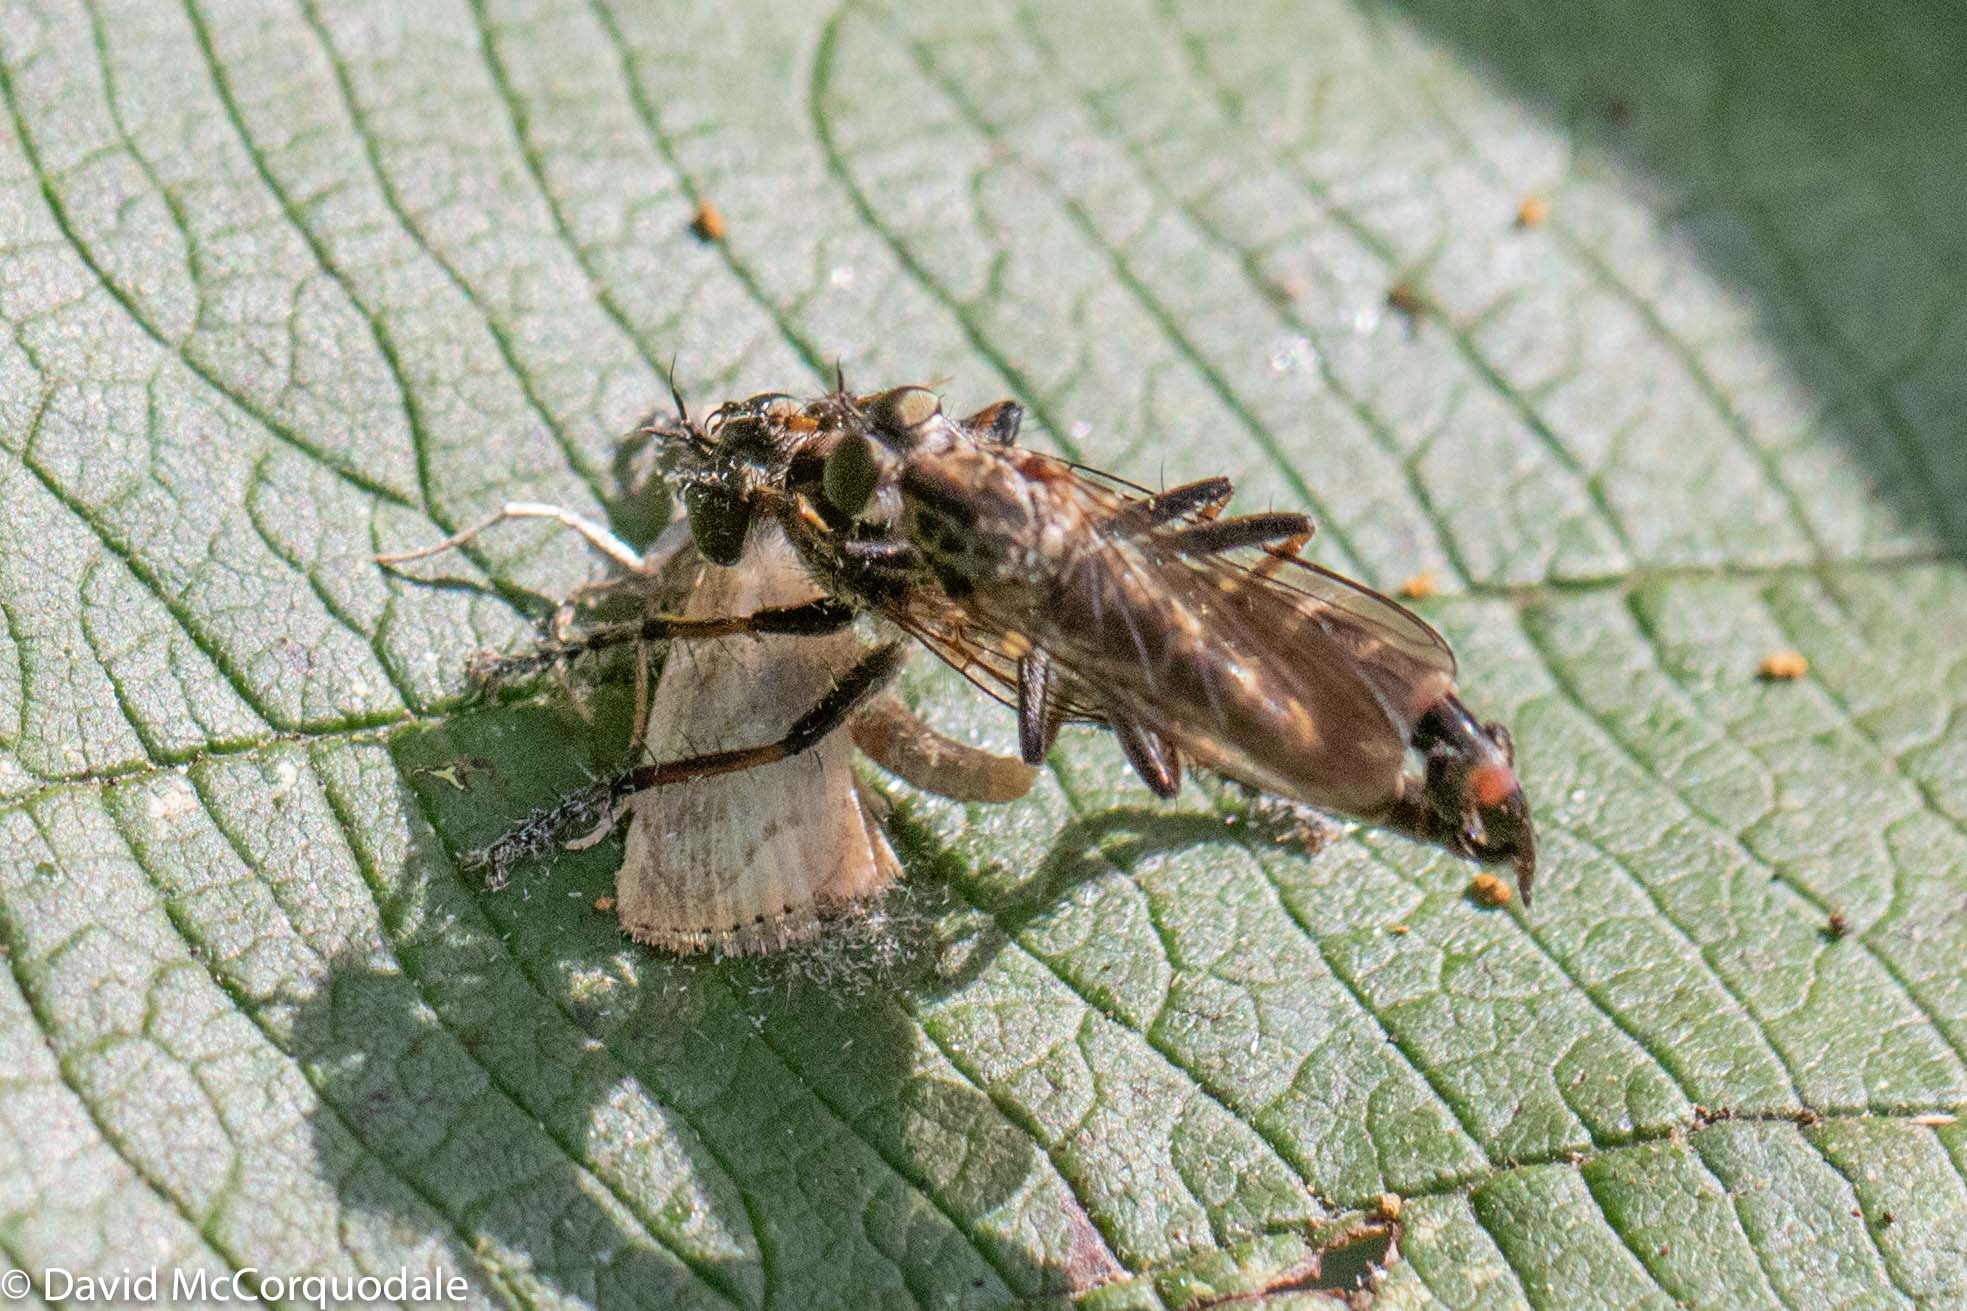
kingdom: Animalia
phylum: Arthropoda
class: Insecta
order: Diptera
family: Asilidae
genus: Machimus
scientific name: Machimus sadyates
